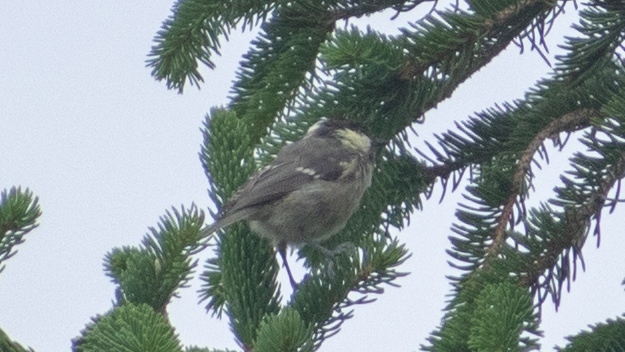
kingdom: Animalia
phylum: Chordata
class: Aves
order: Passeriformes
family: Paridae
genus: Periparus
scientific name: Periparus ater
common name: Coal tit
